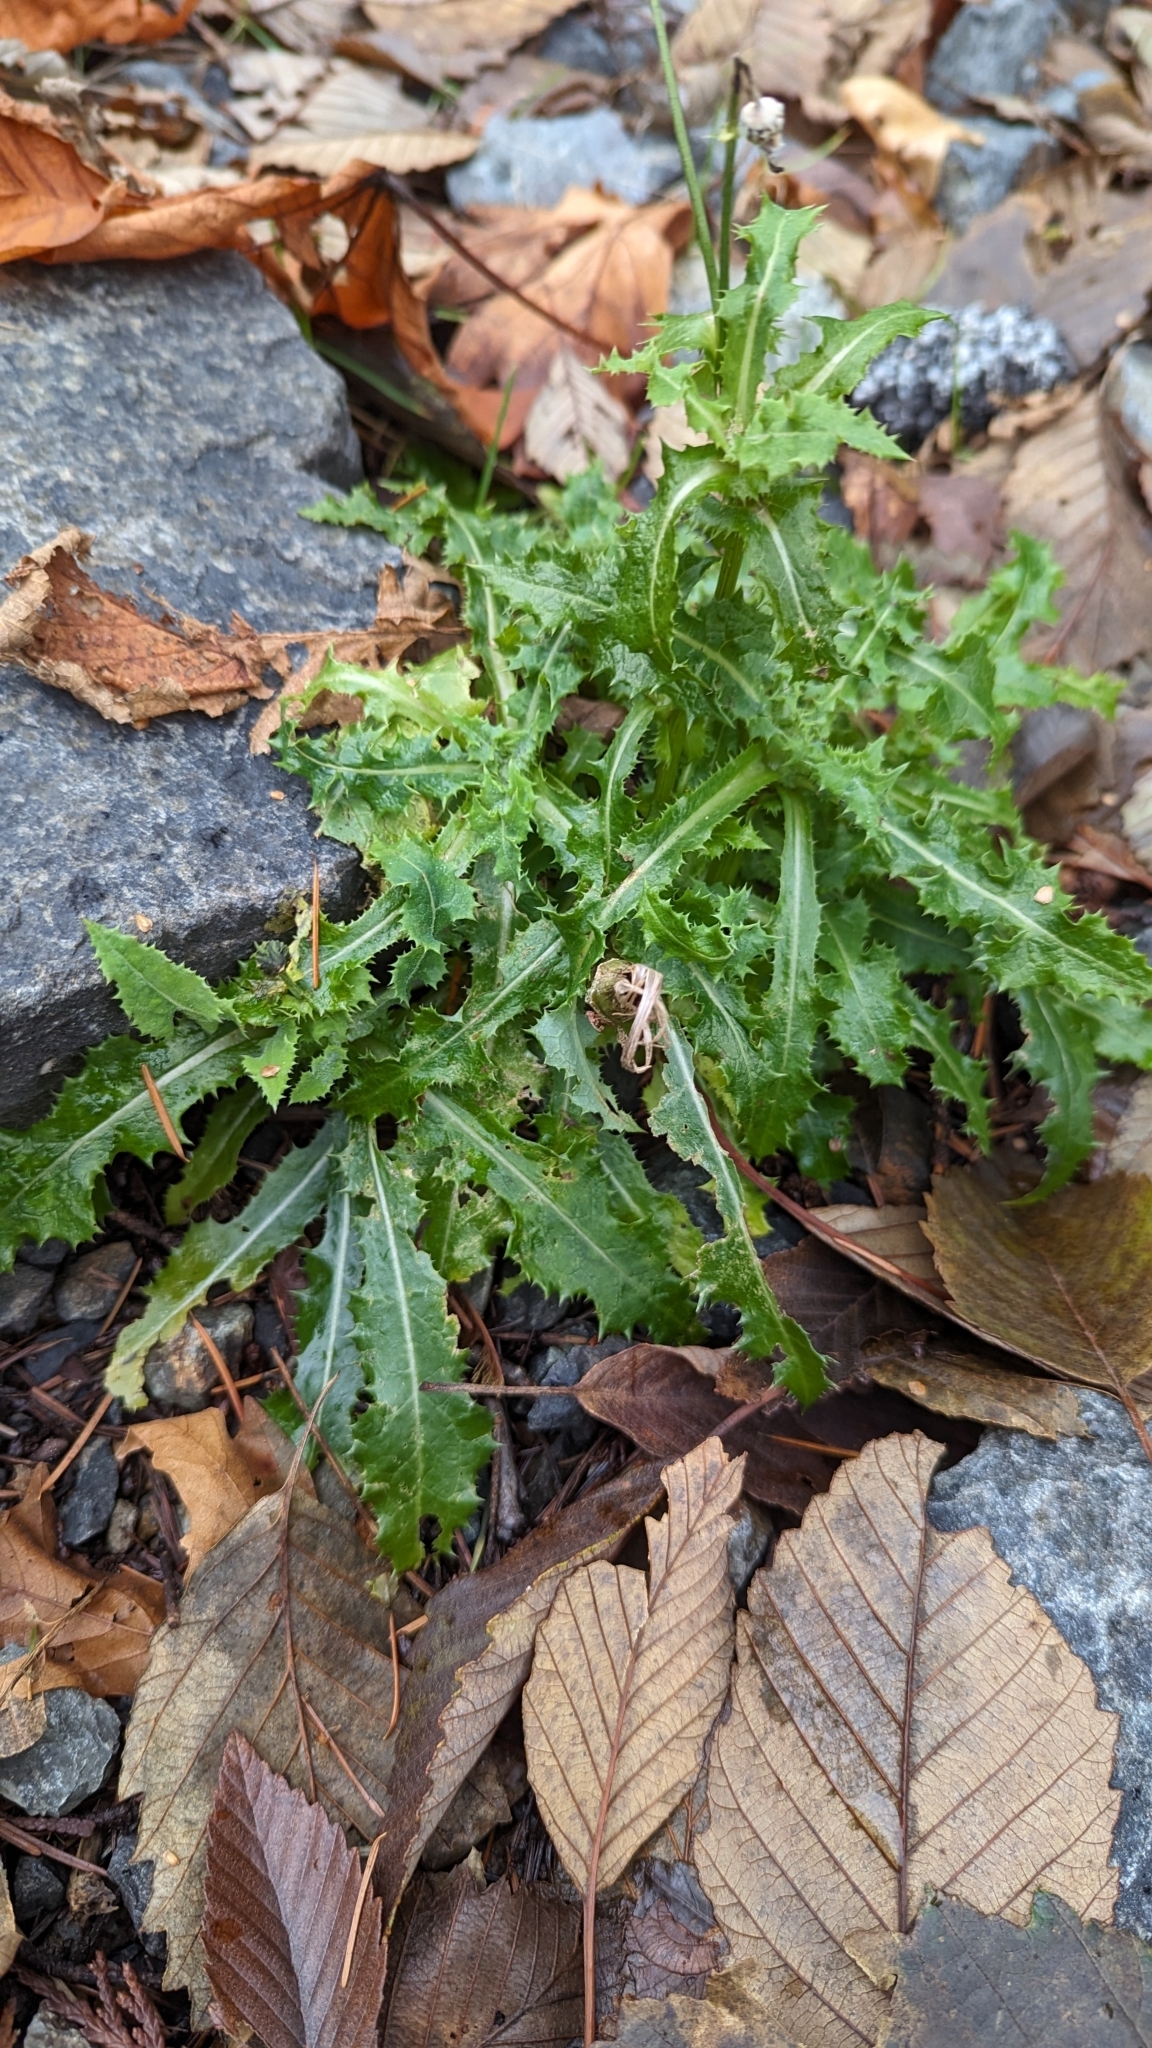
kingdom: Plantae
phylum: Tracheophyta
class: Magnoliopsida
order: Asterales
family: Asteraceae
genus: Sonchus
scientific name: Sonchus asper
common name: Prickly sow-thistle
